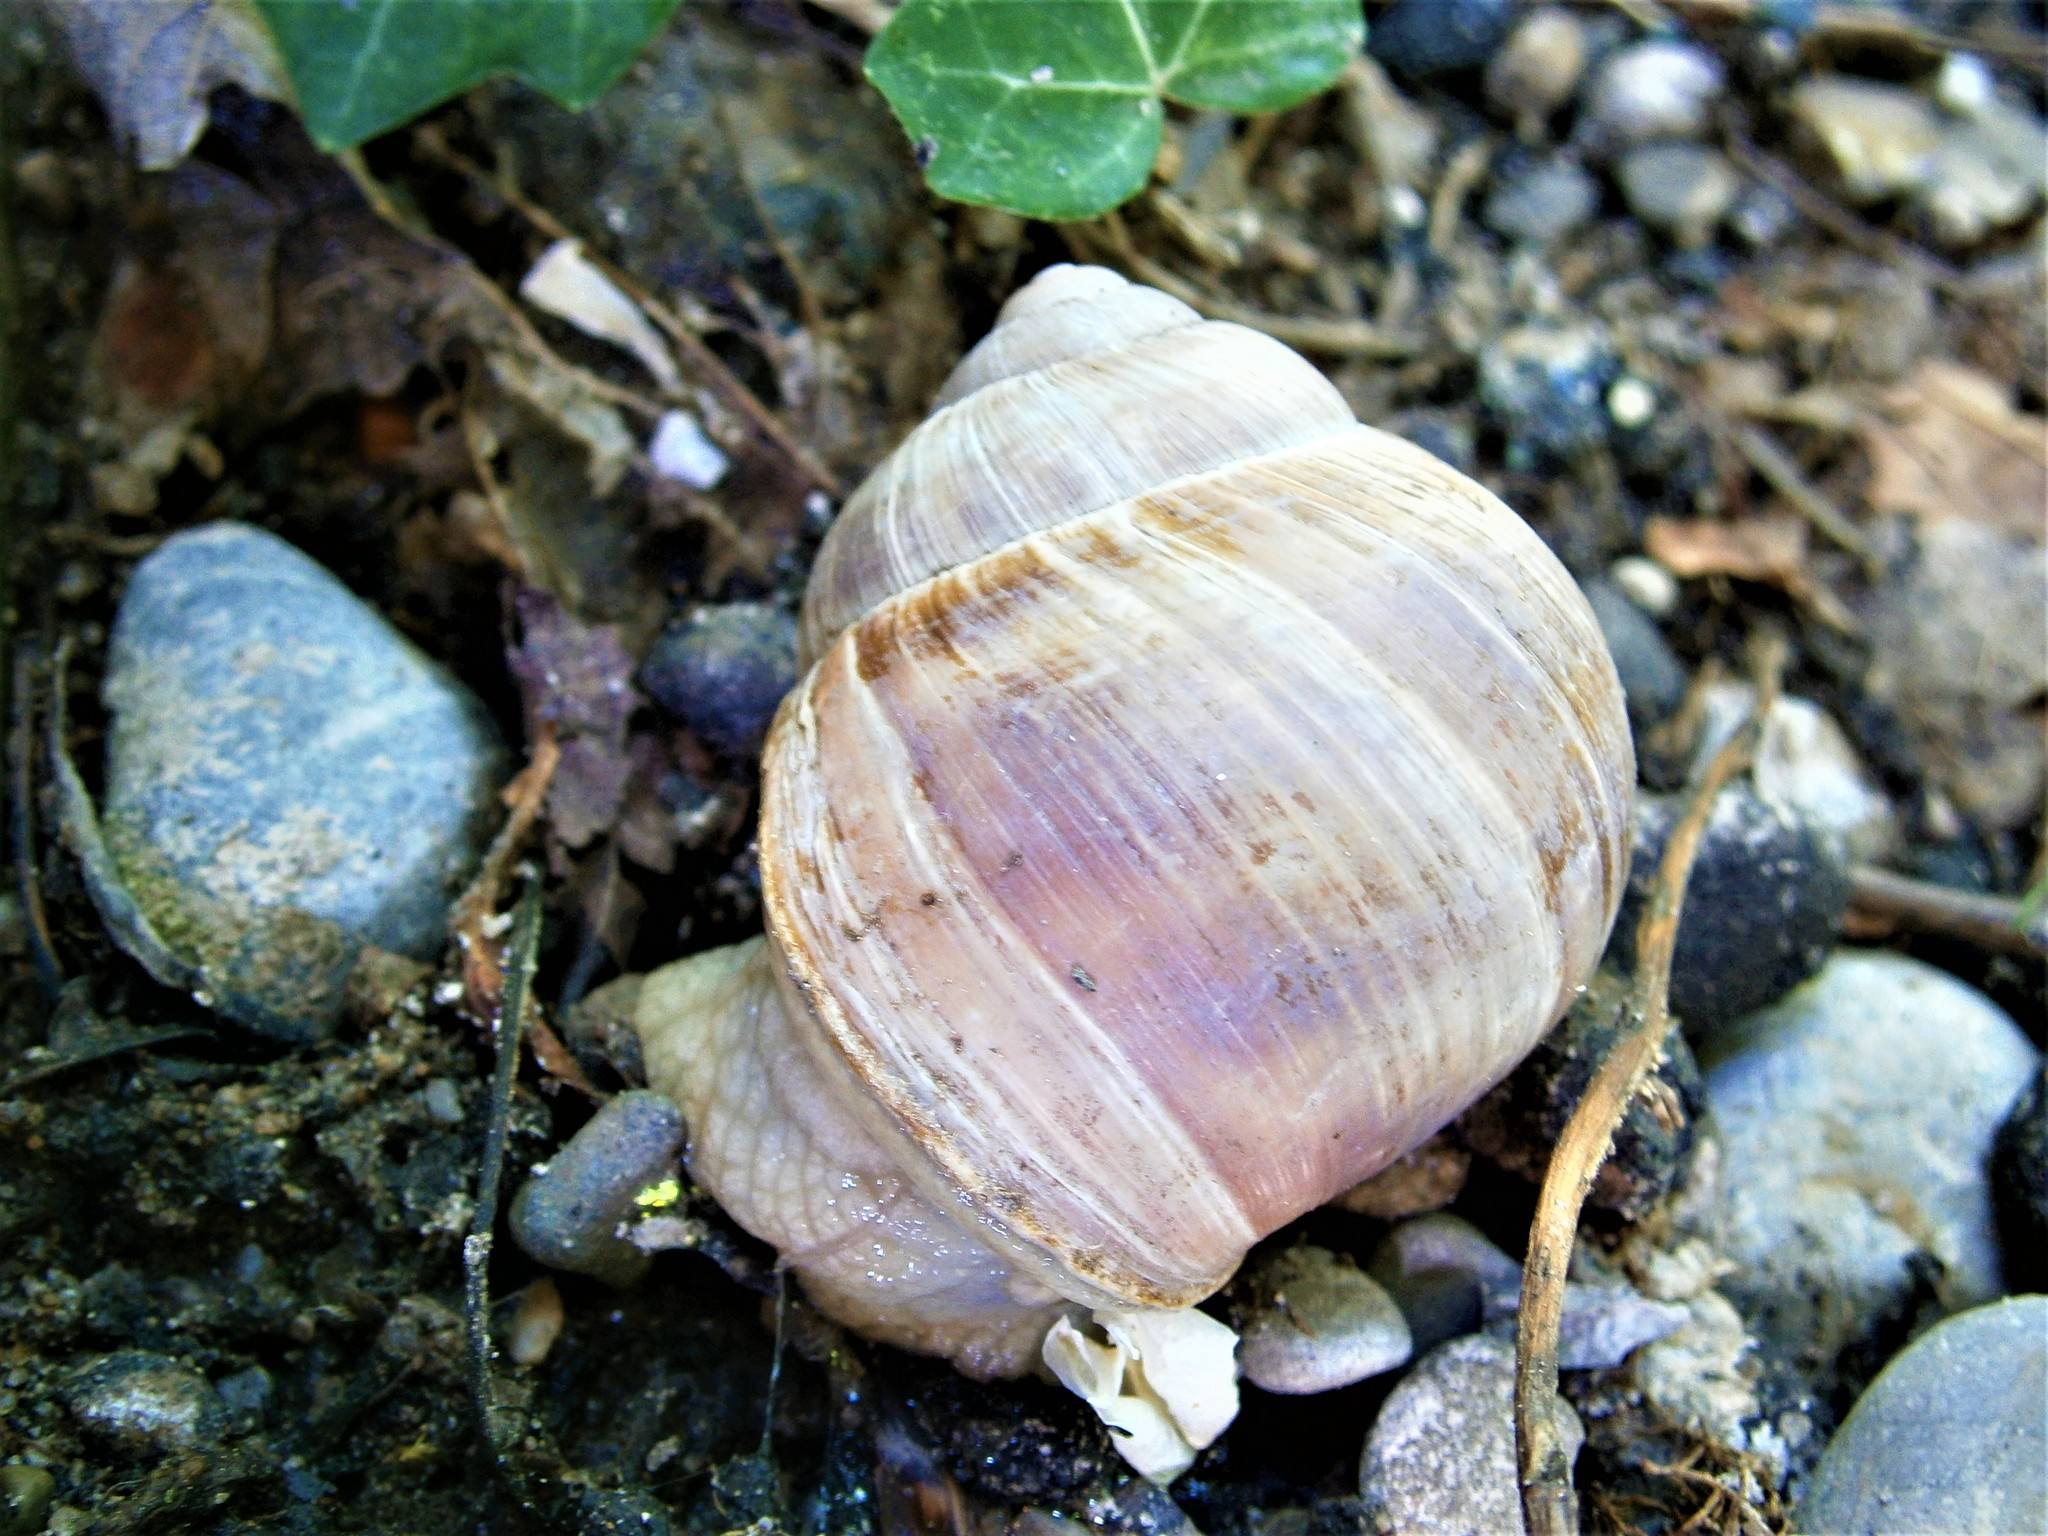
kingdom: Animalia
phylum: Mollusca
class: Gastropoda
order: Stylommatophora
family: Helicidae
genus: Helix
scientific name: Helix pomatia
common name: Roman snail
